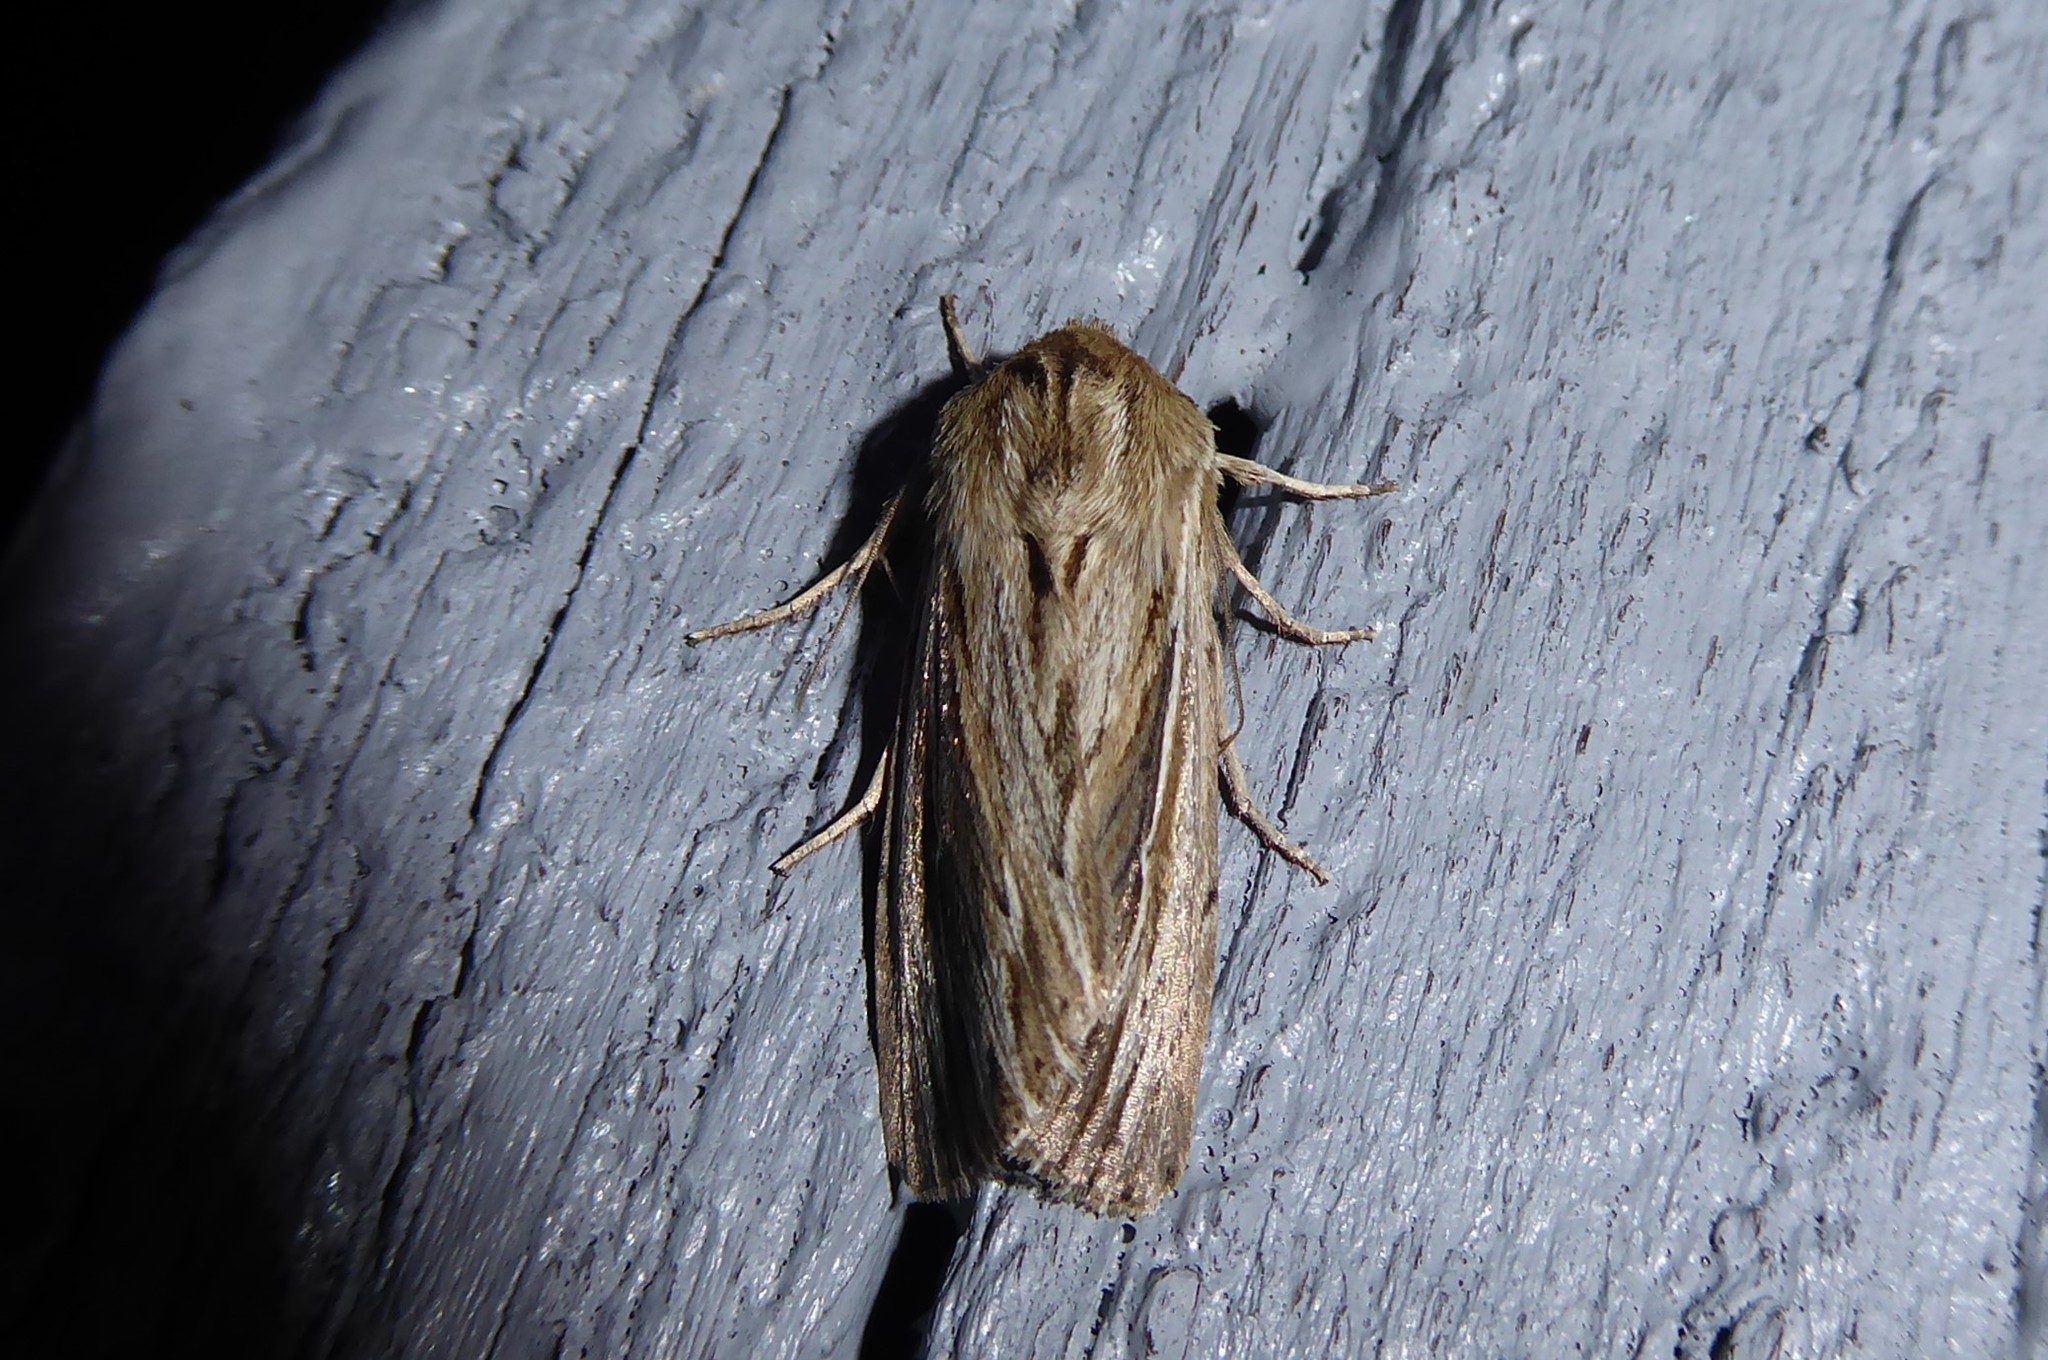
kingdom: Animalia
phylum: Arthropoda
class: Insecta
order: Lepidoptera
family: Noctuidae
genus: Persectania
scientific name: Persectania aversa
